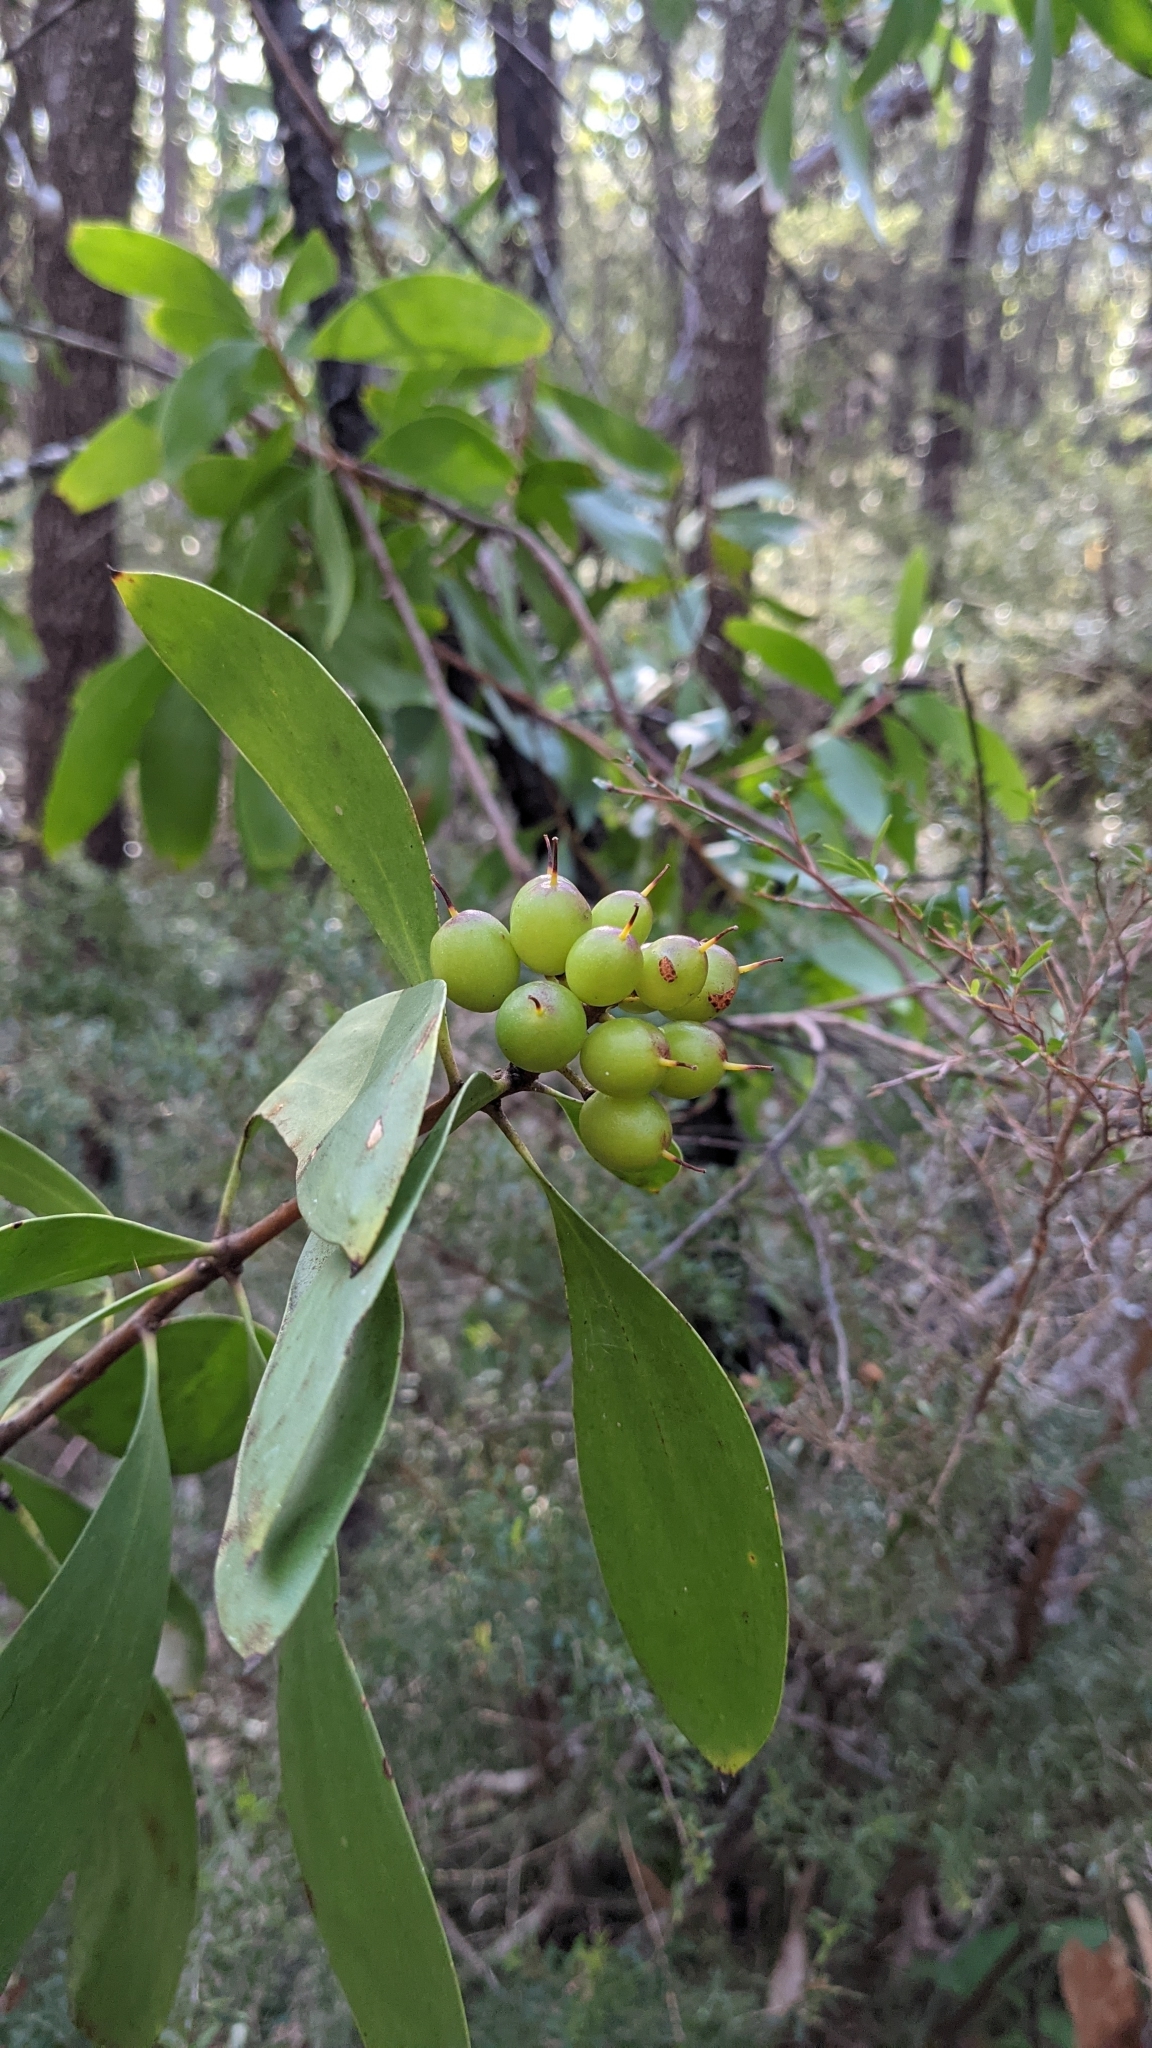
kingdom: Plantae
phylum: Tracheophyta
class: Magnoliopsida
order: Proteales
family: Proteaceae
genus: Persoonia
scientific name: Persoonia levis
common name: Smooth geebung
